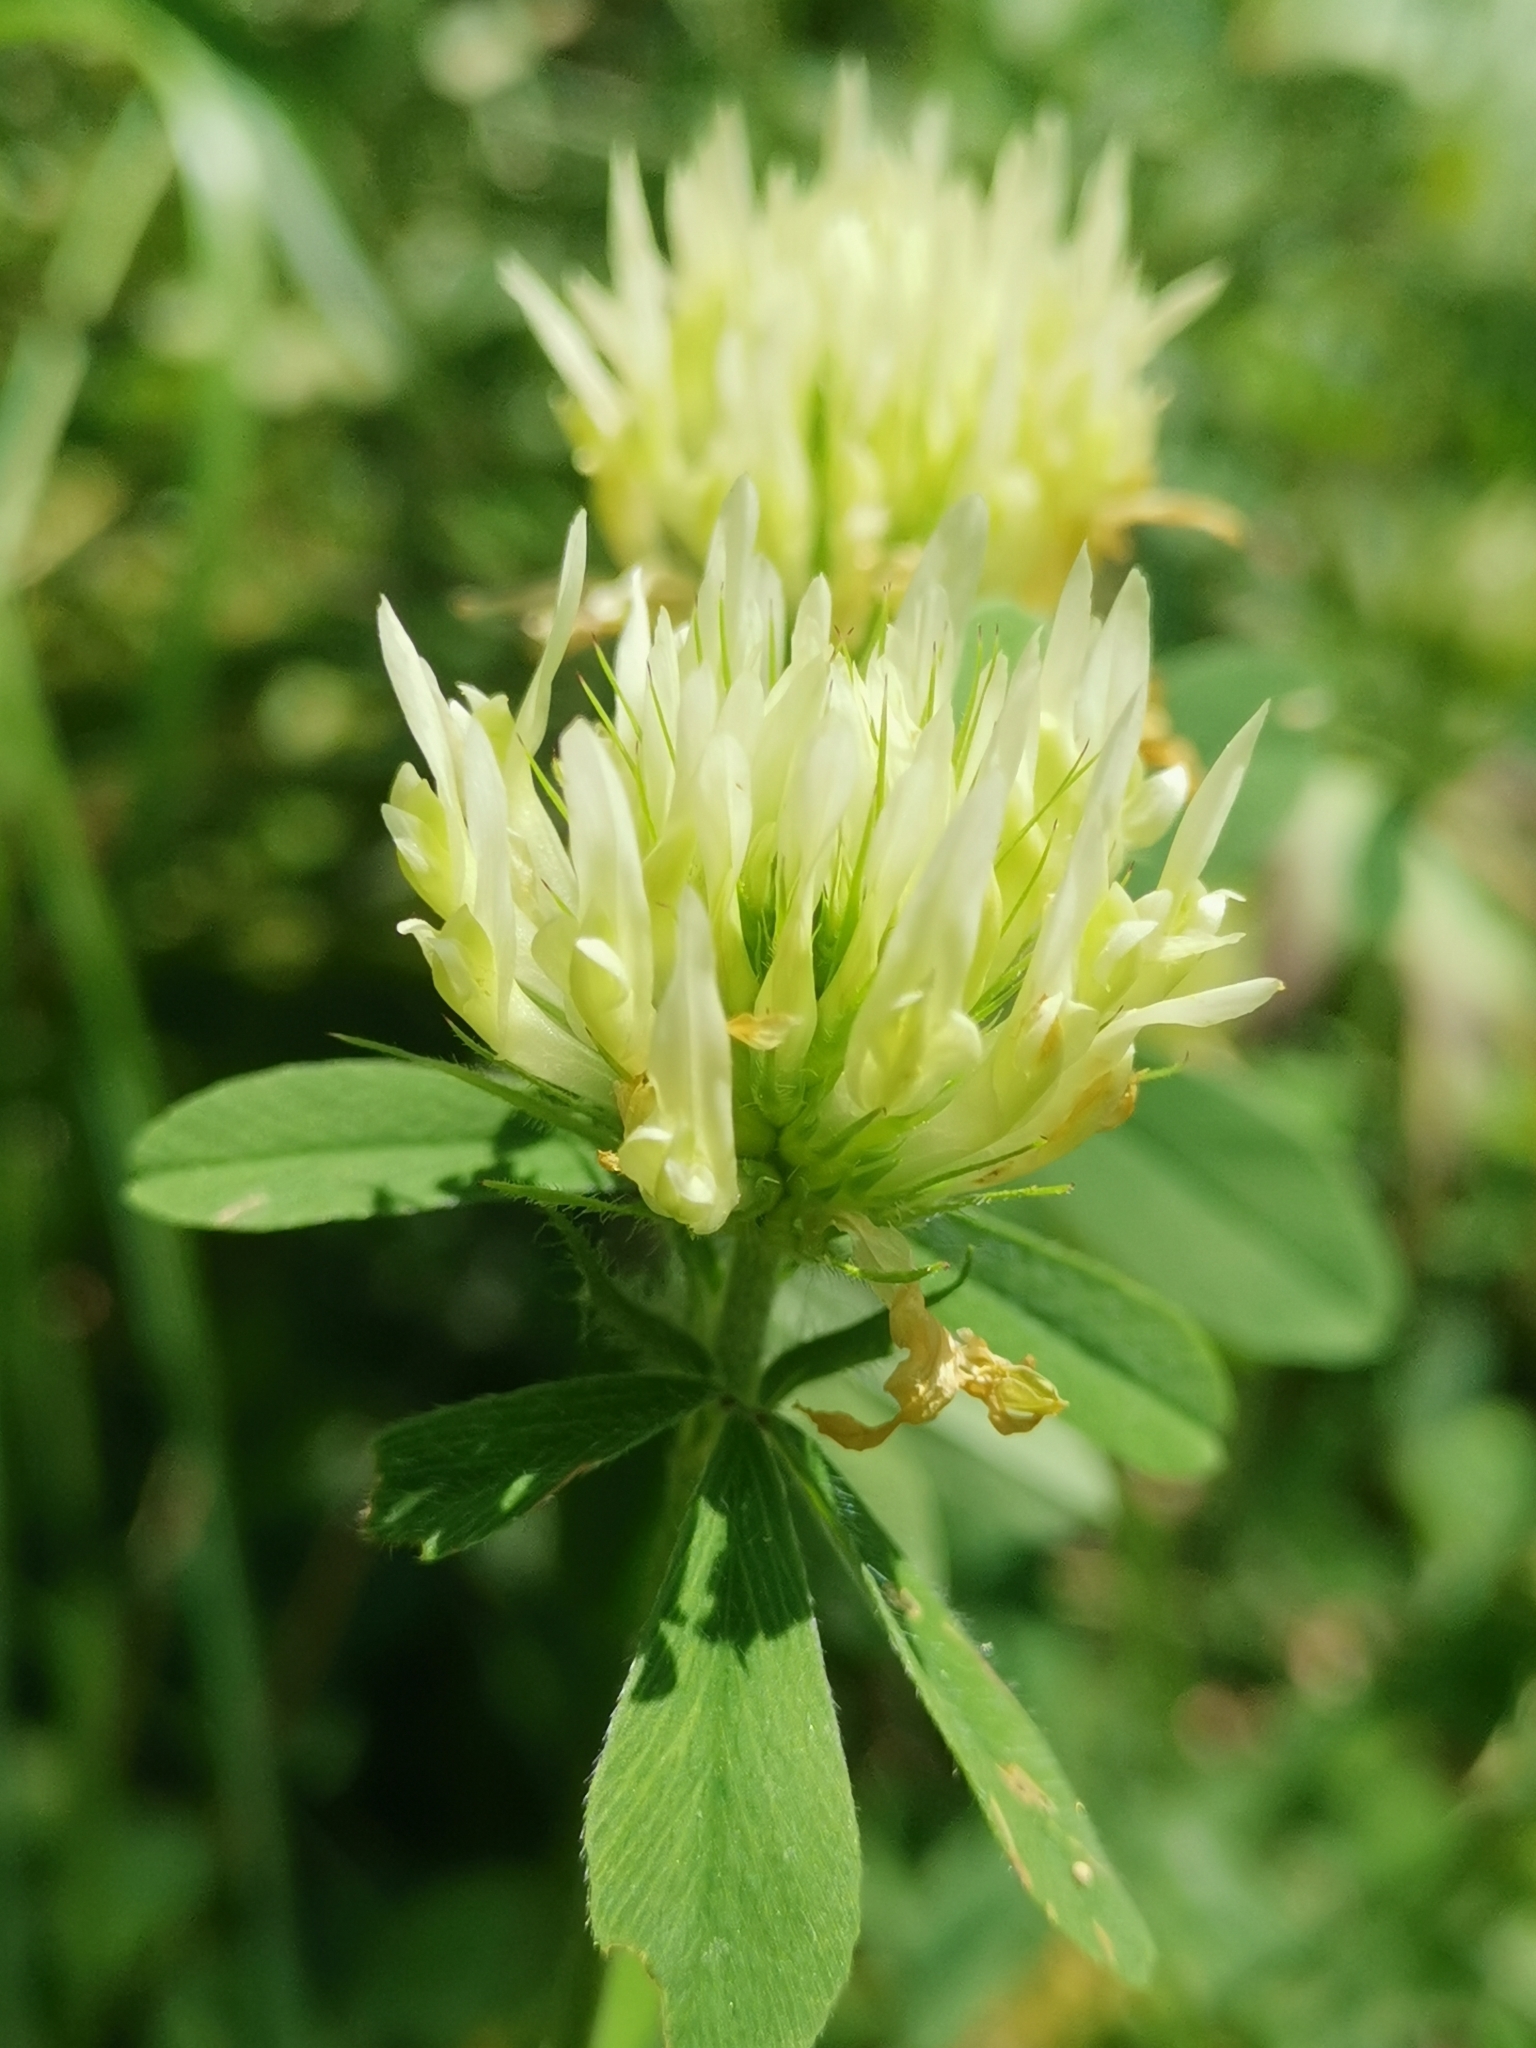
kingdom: Plantae
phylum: Tracheophyta
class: Magnoliopsida
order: Fabales
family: Fabaceae
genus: Trifolium
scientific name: Trifolium ochroleucon
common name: Sulphur clover
